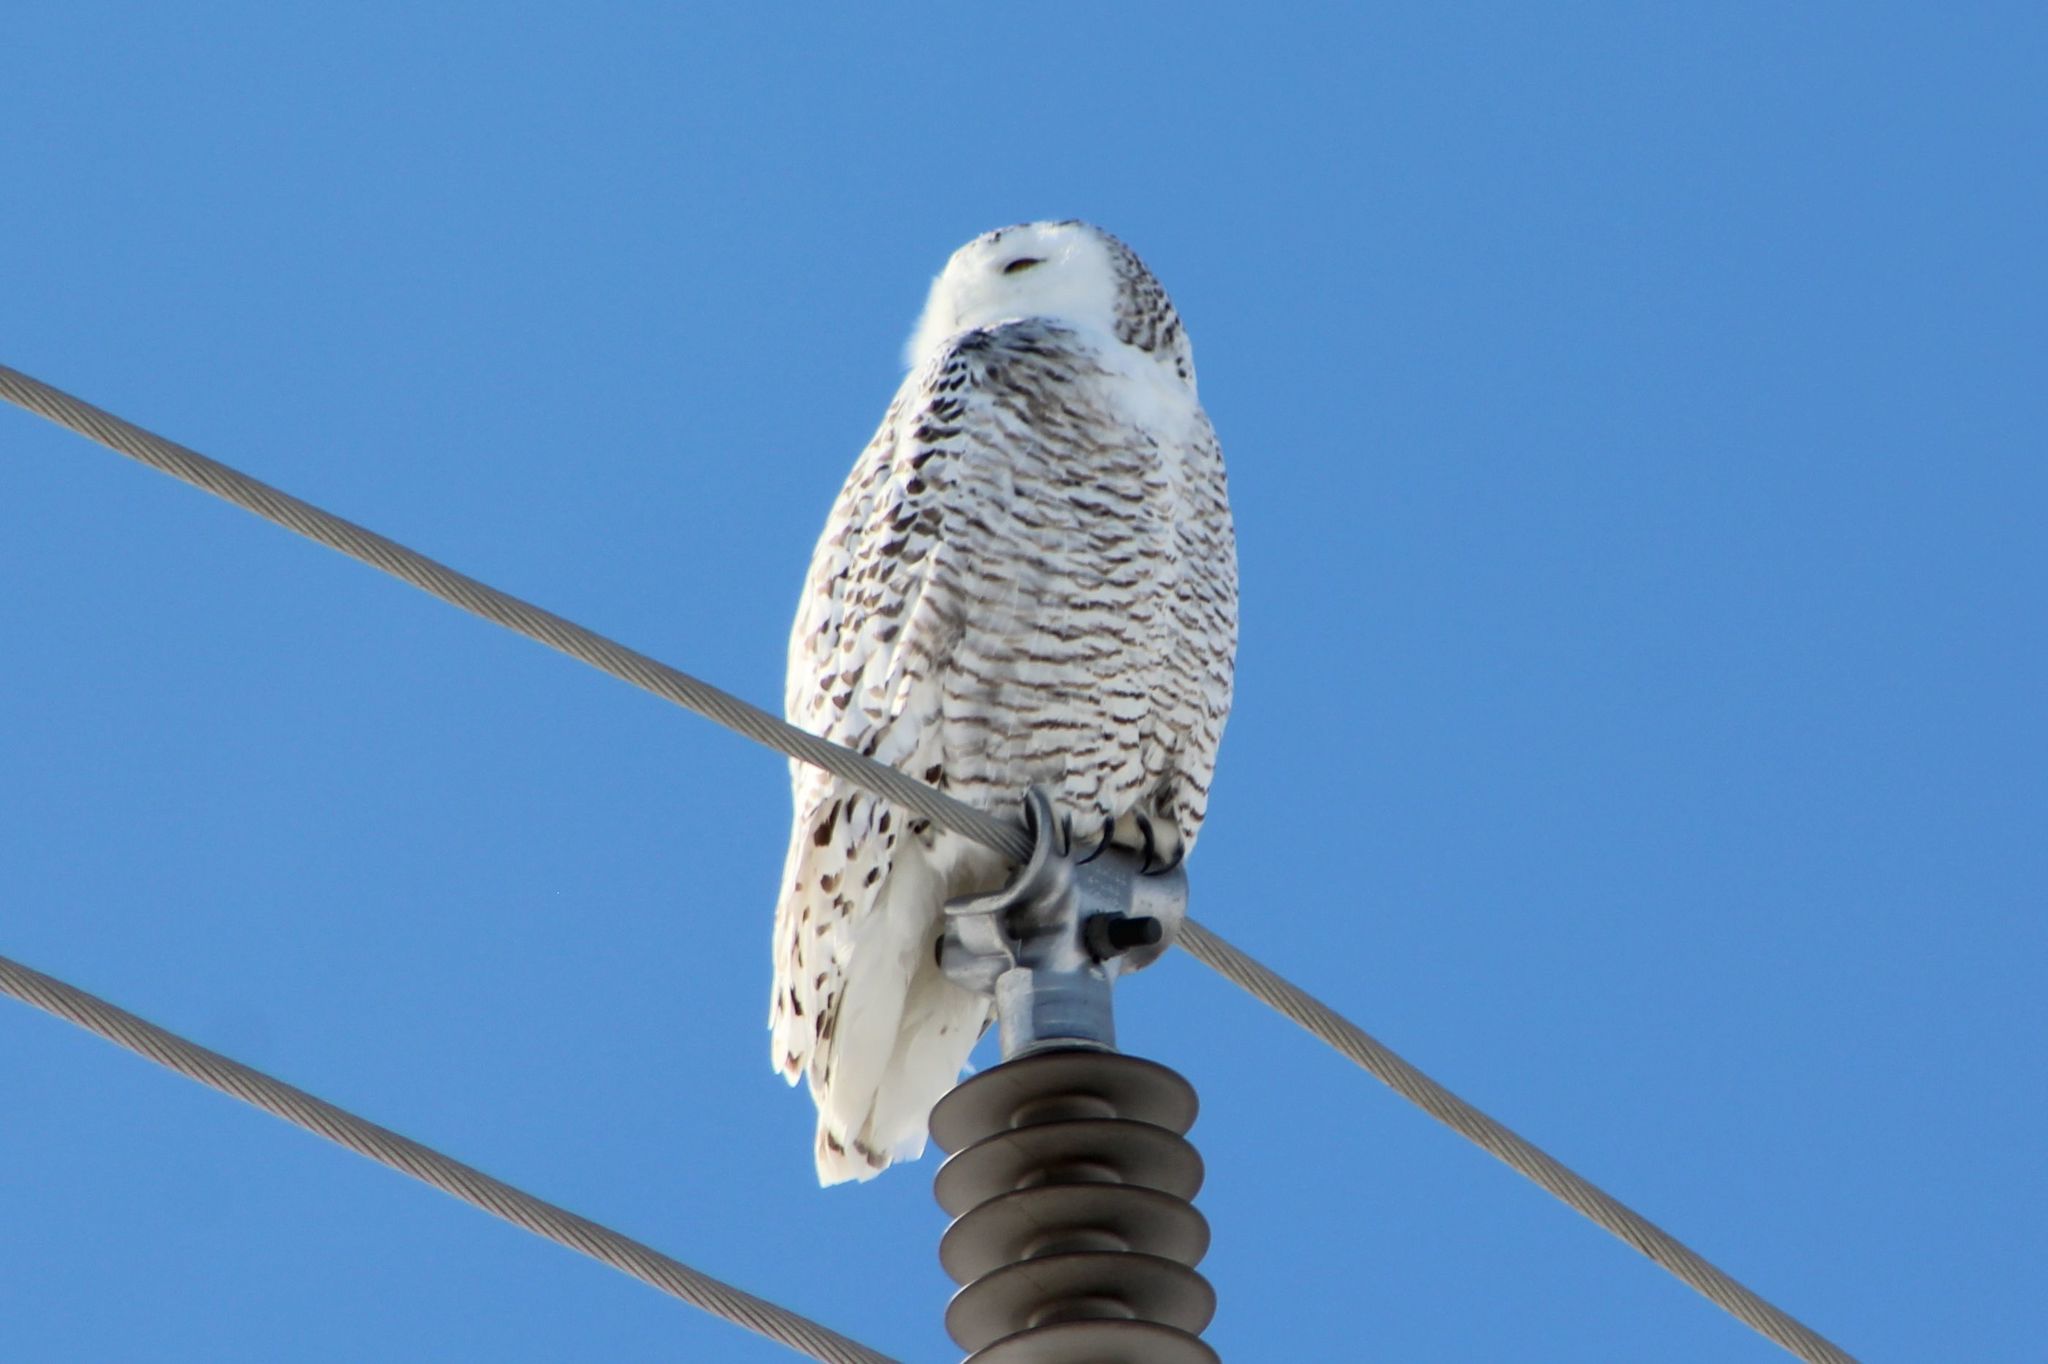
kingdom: Animalia
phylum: Chordata
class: Aves
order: Strigiformes
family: Strigidae
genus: Bubo
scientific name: Bubo scandiacus
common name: Snowy owl
